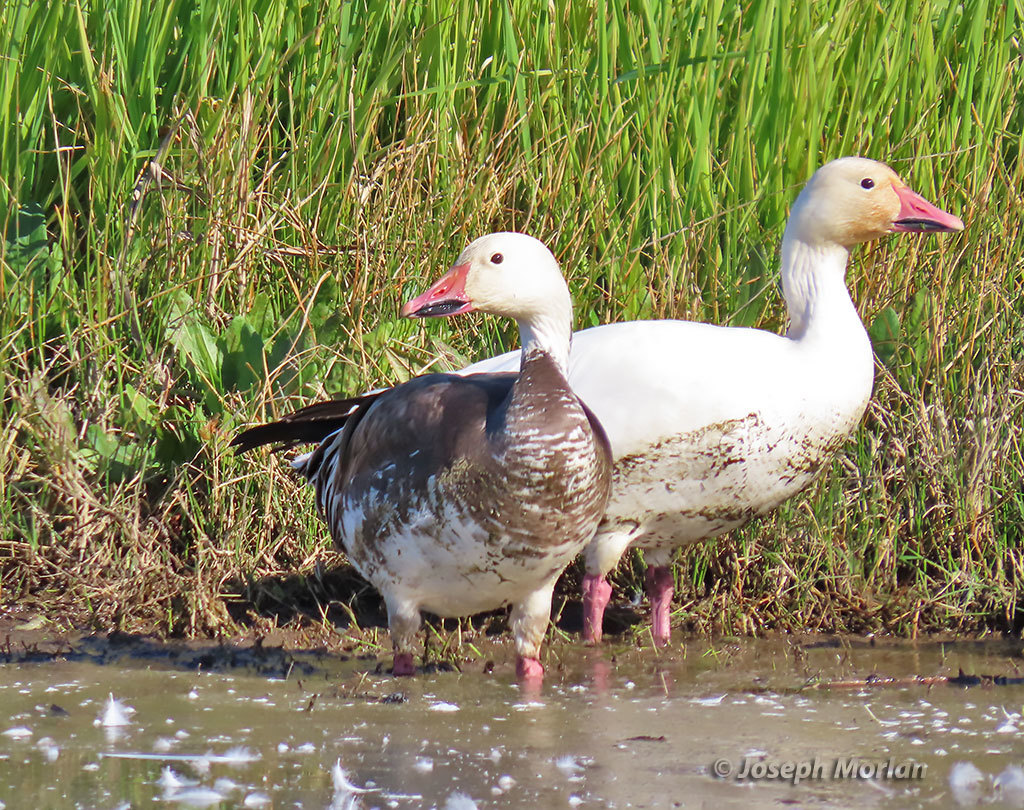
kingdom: Animalia
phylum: Chordata
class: Aves
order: Anseriformes
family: Anatidae
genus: Anser
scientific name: Anser caerulescens
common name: Snow goose
